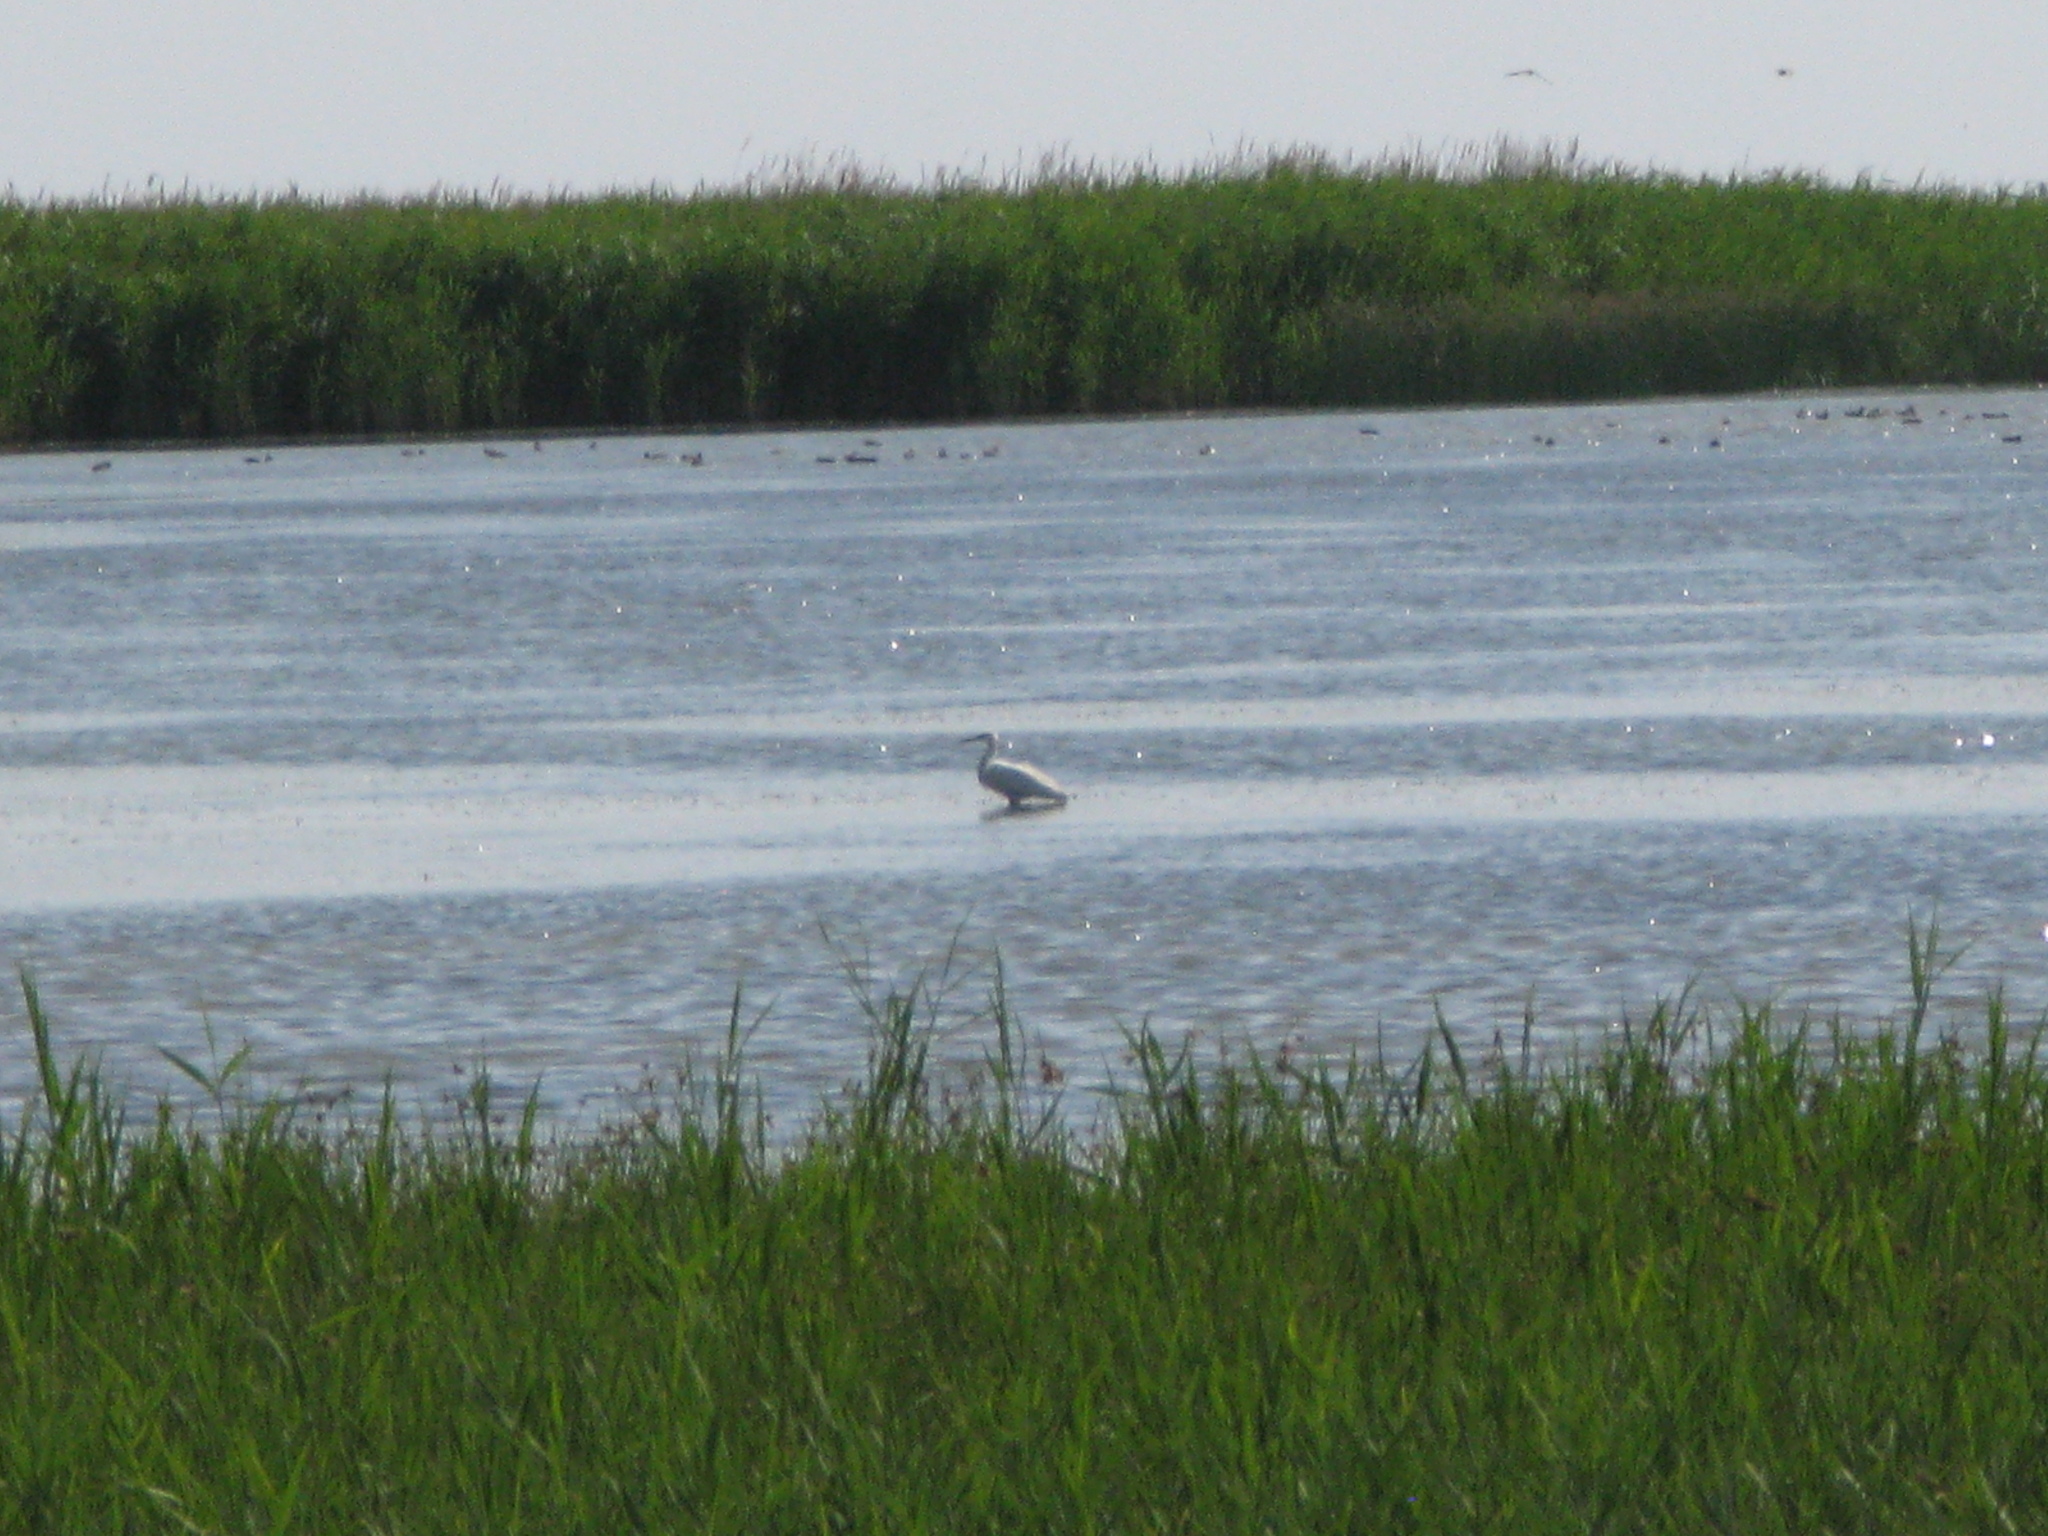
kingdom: Animalia
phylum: Chordata
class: Aves
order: Pelecaniformes
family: Ardeidae
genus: Ardea
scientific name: Ardea alba
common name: Great egret
